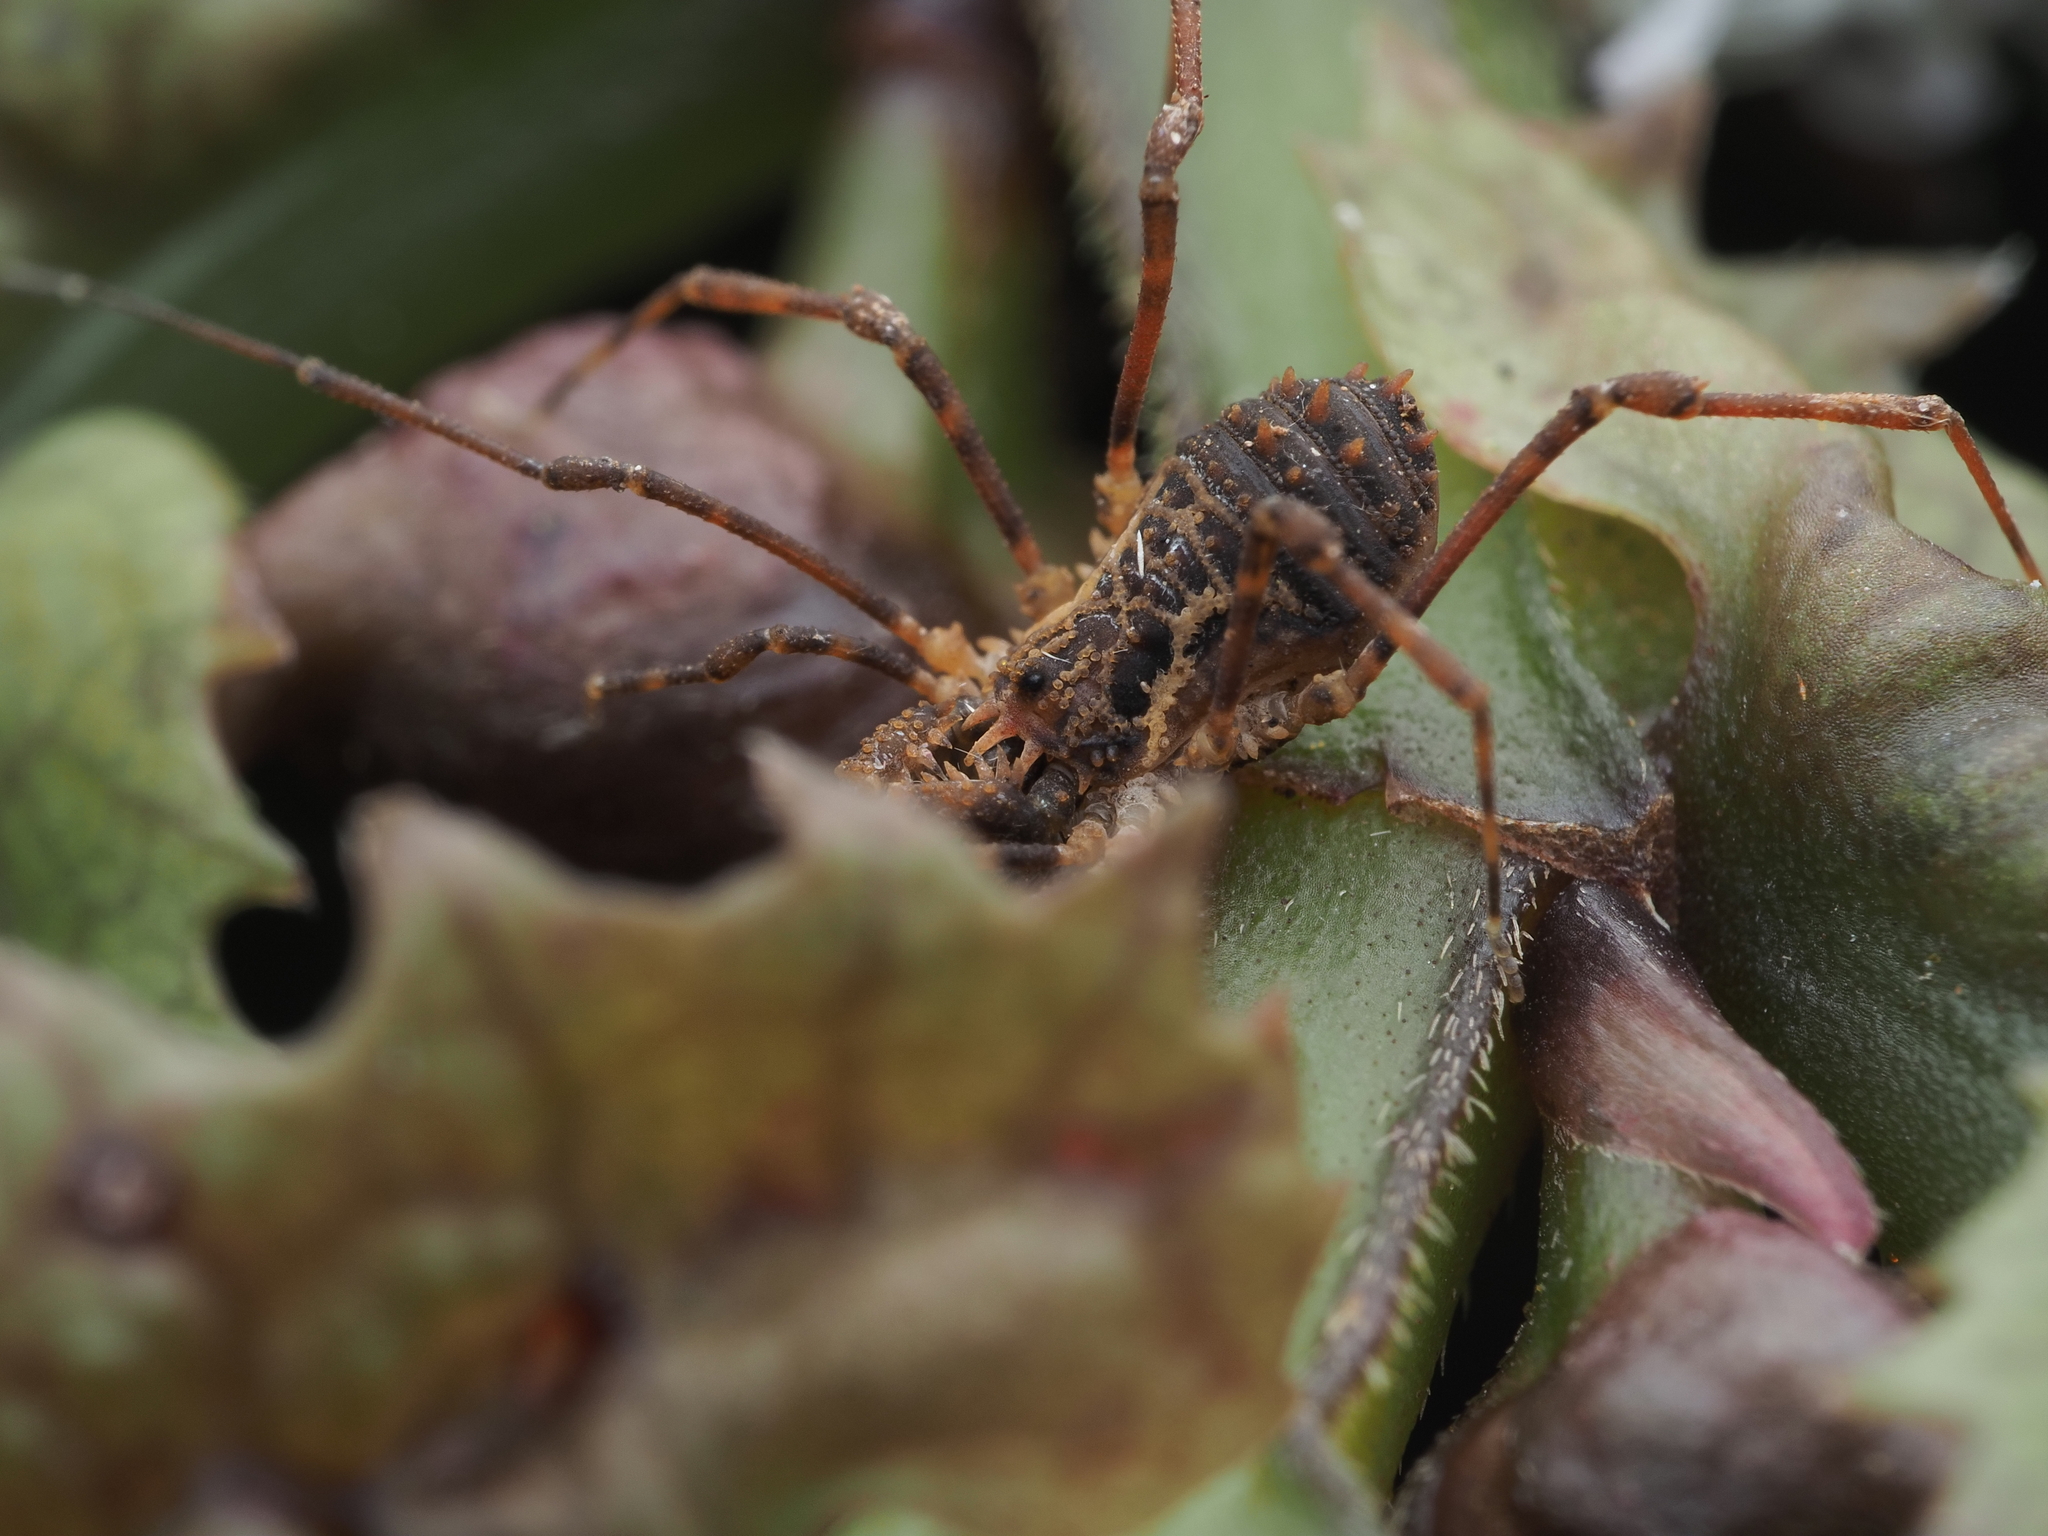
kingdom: Animalia
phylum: Arthropoda
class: Arachnida
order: Opiliones
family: Triaenonychidae
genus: Algidia
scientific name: Algidia chiltoni
